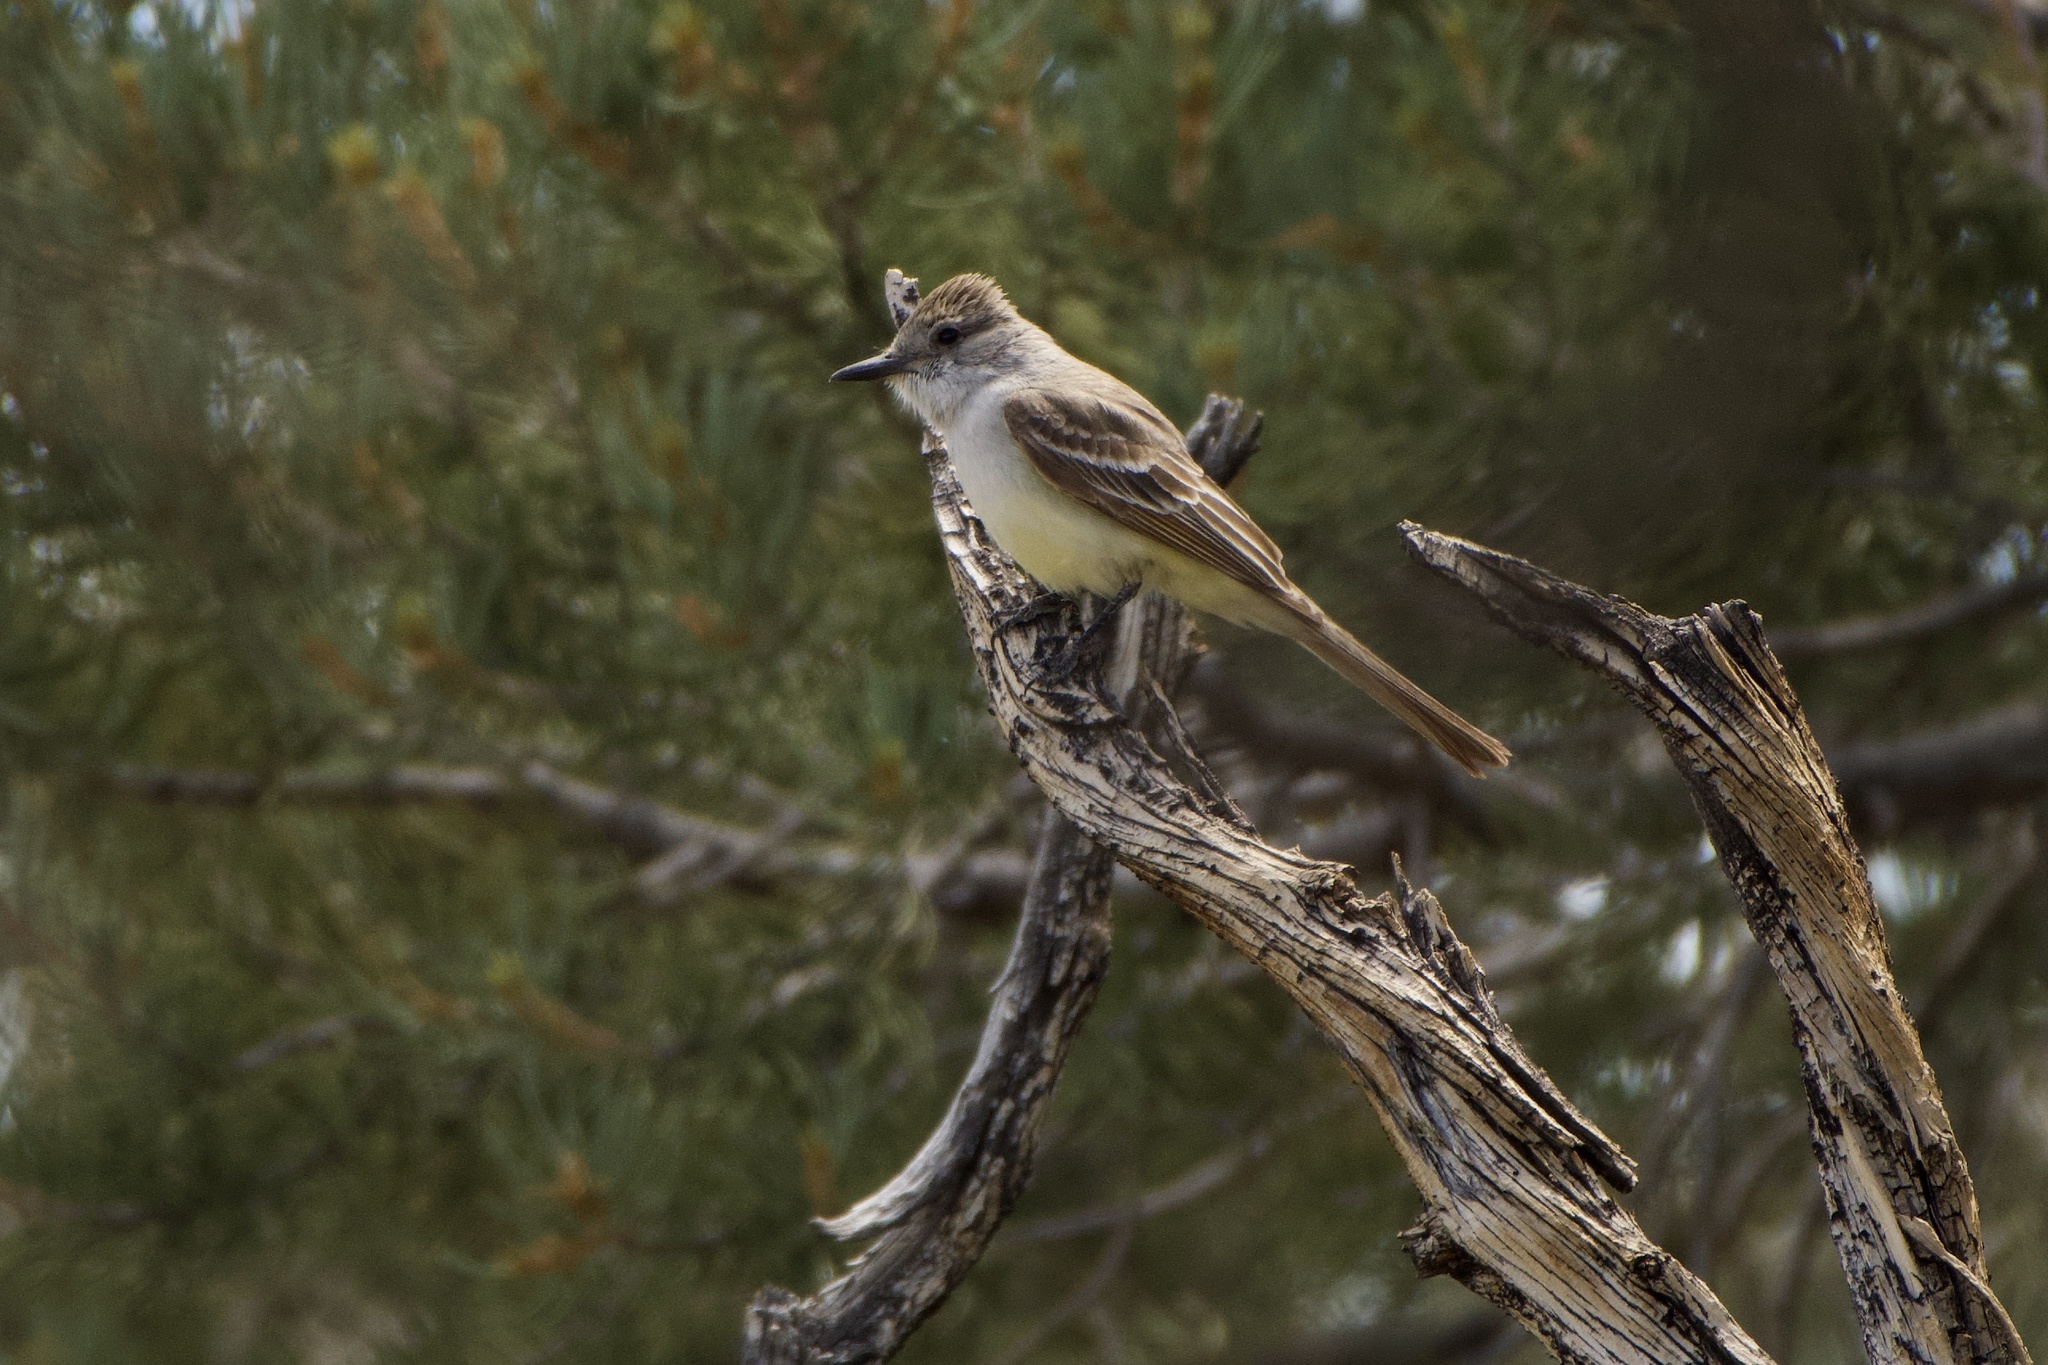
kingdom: Animalia
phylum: Chordata
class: Aves
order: Passeriformes
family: Tyrannidae
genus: Myiarchus
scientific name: Myiarchus cinerascens
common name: Ash-throated flycatcher
